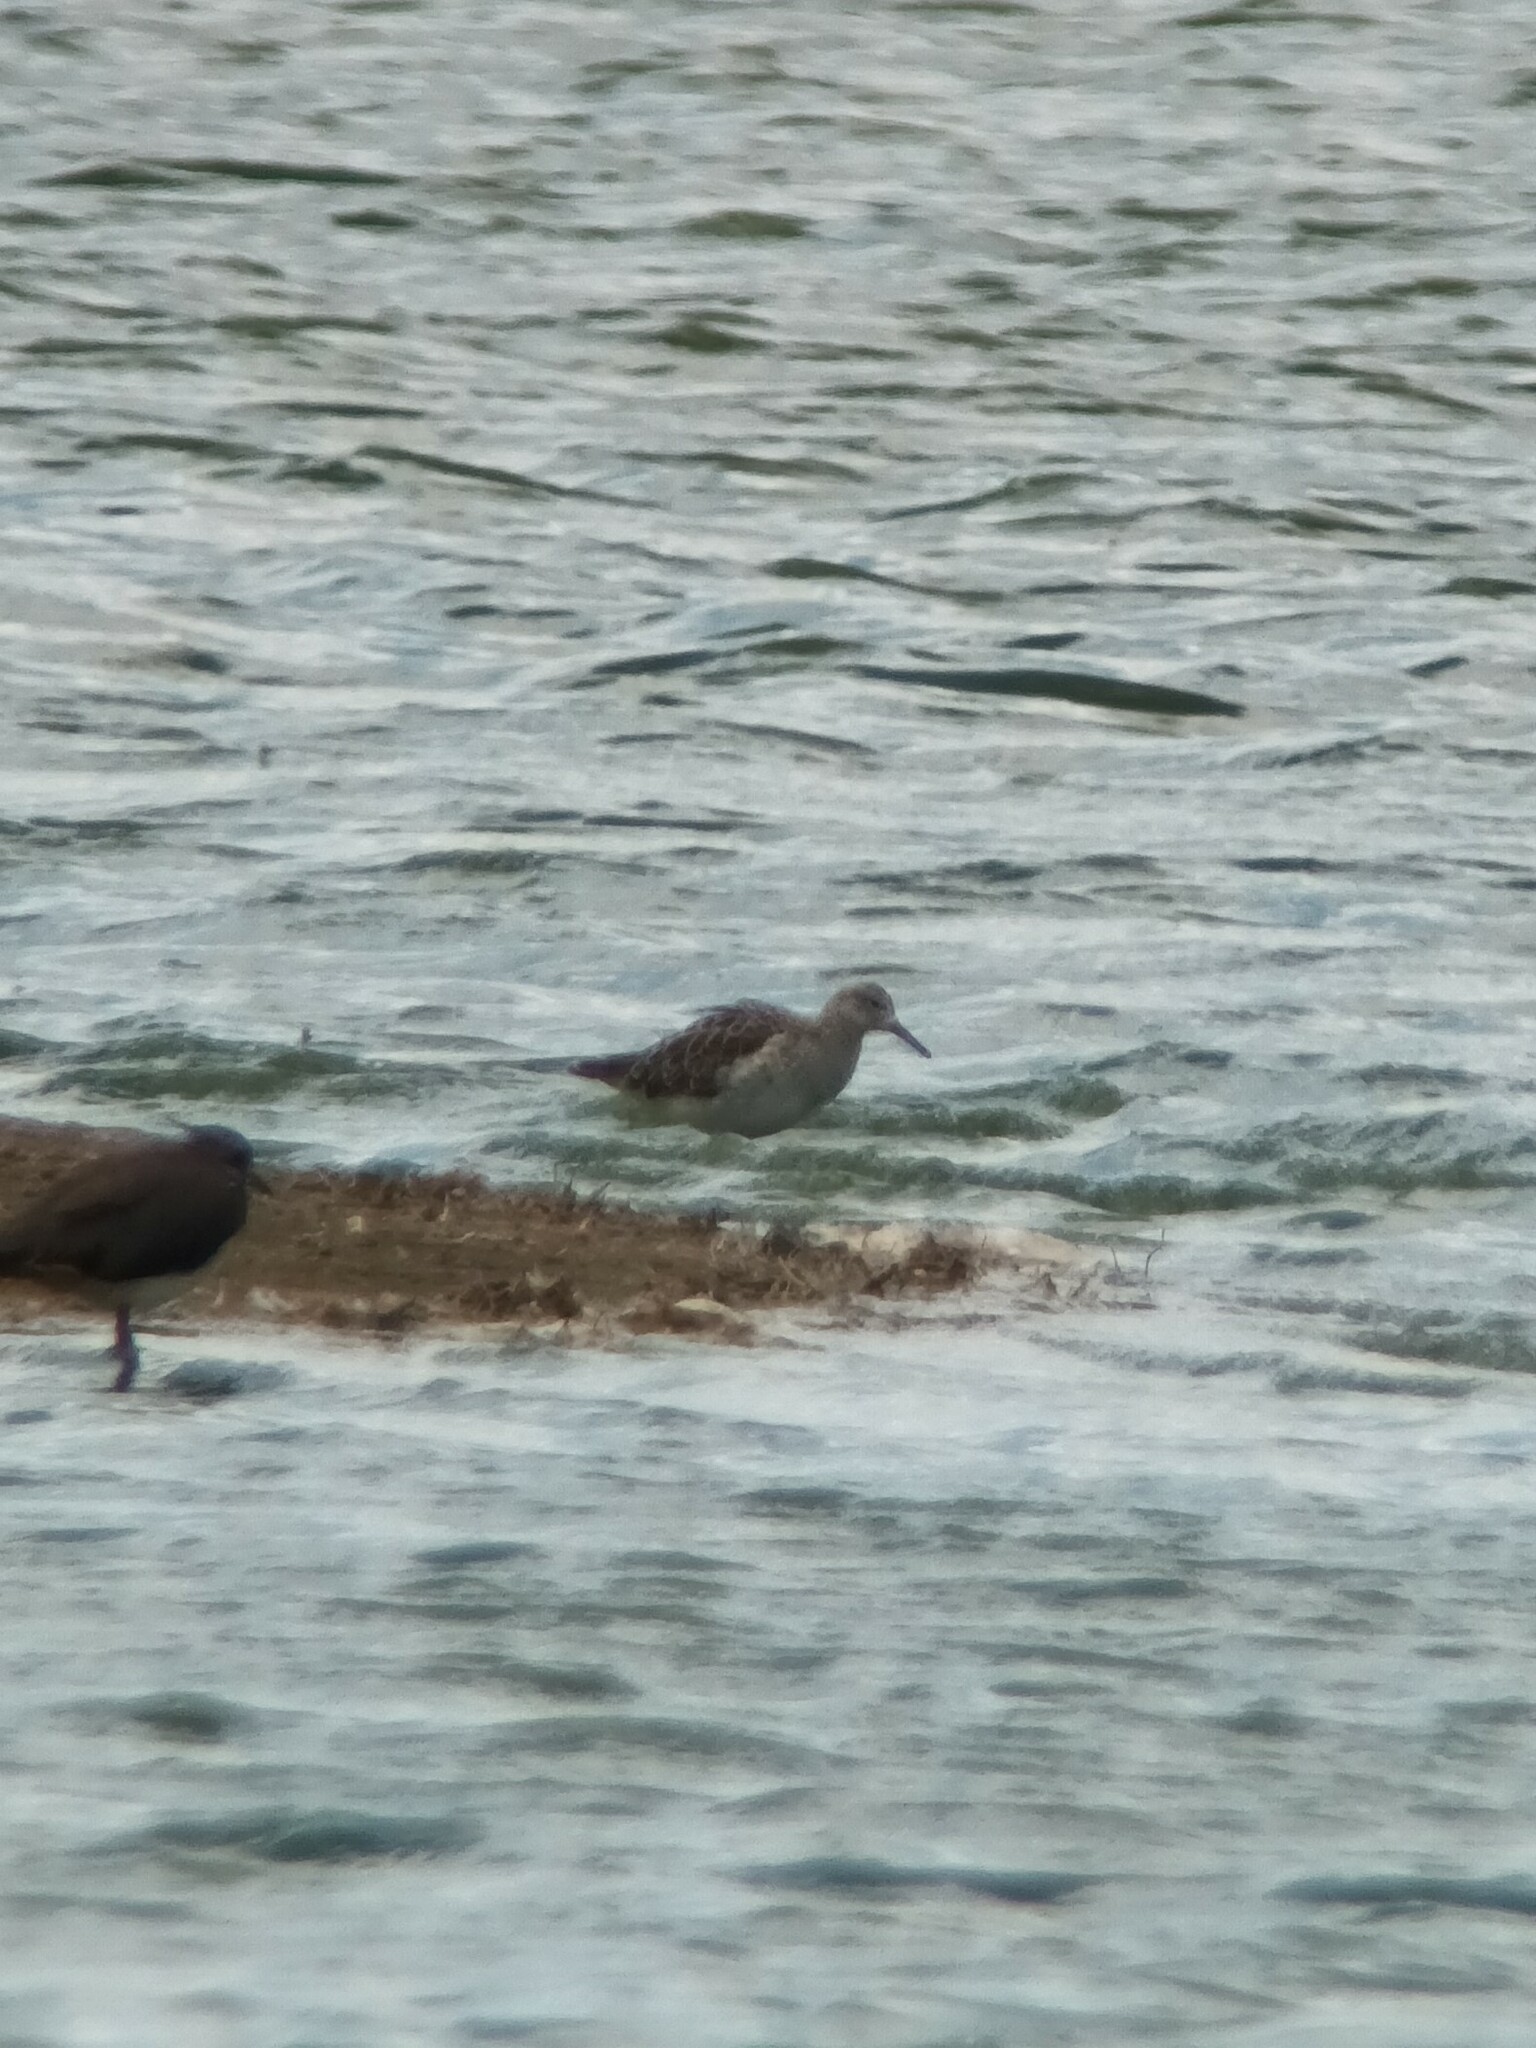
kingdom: Animalia
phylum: Chordata
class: Aves
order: Charadriiformes
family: Scolopacidae
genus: Calidris
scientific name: Calidris pugnax
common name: Ruff
